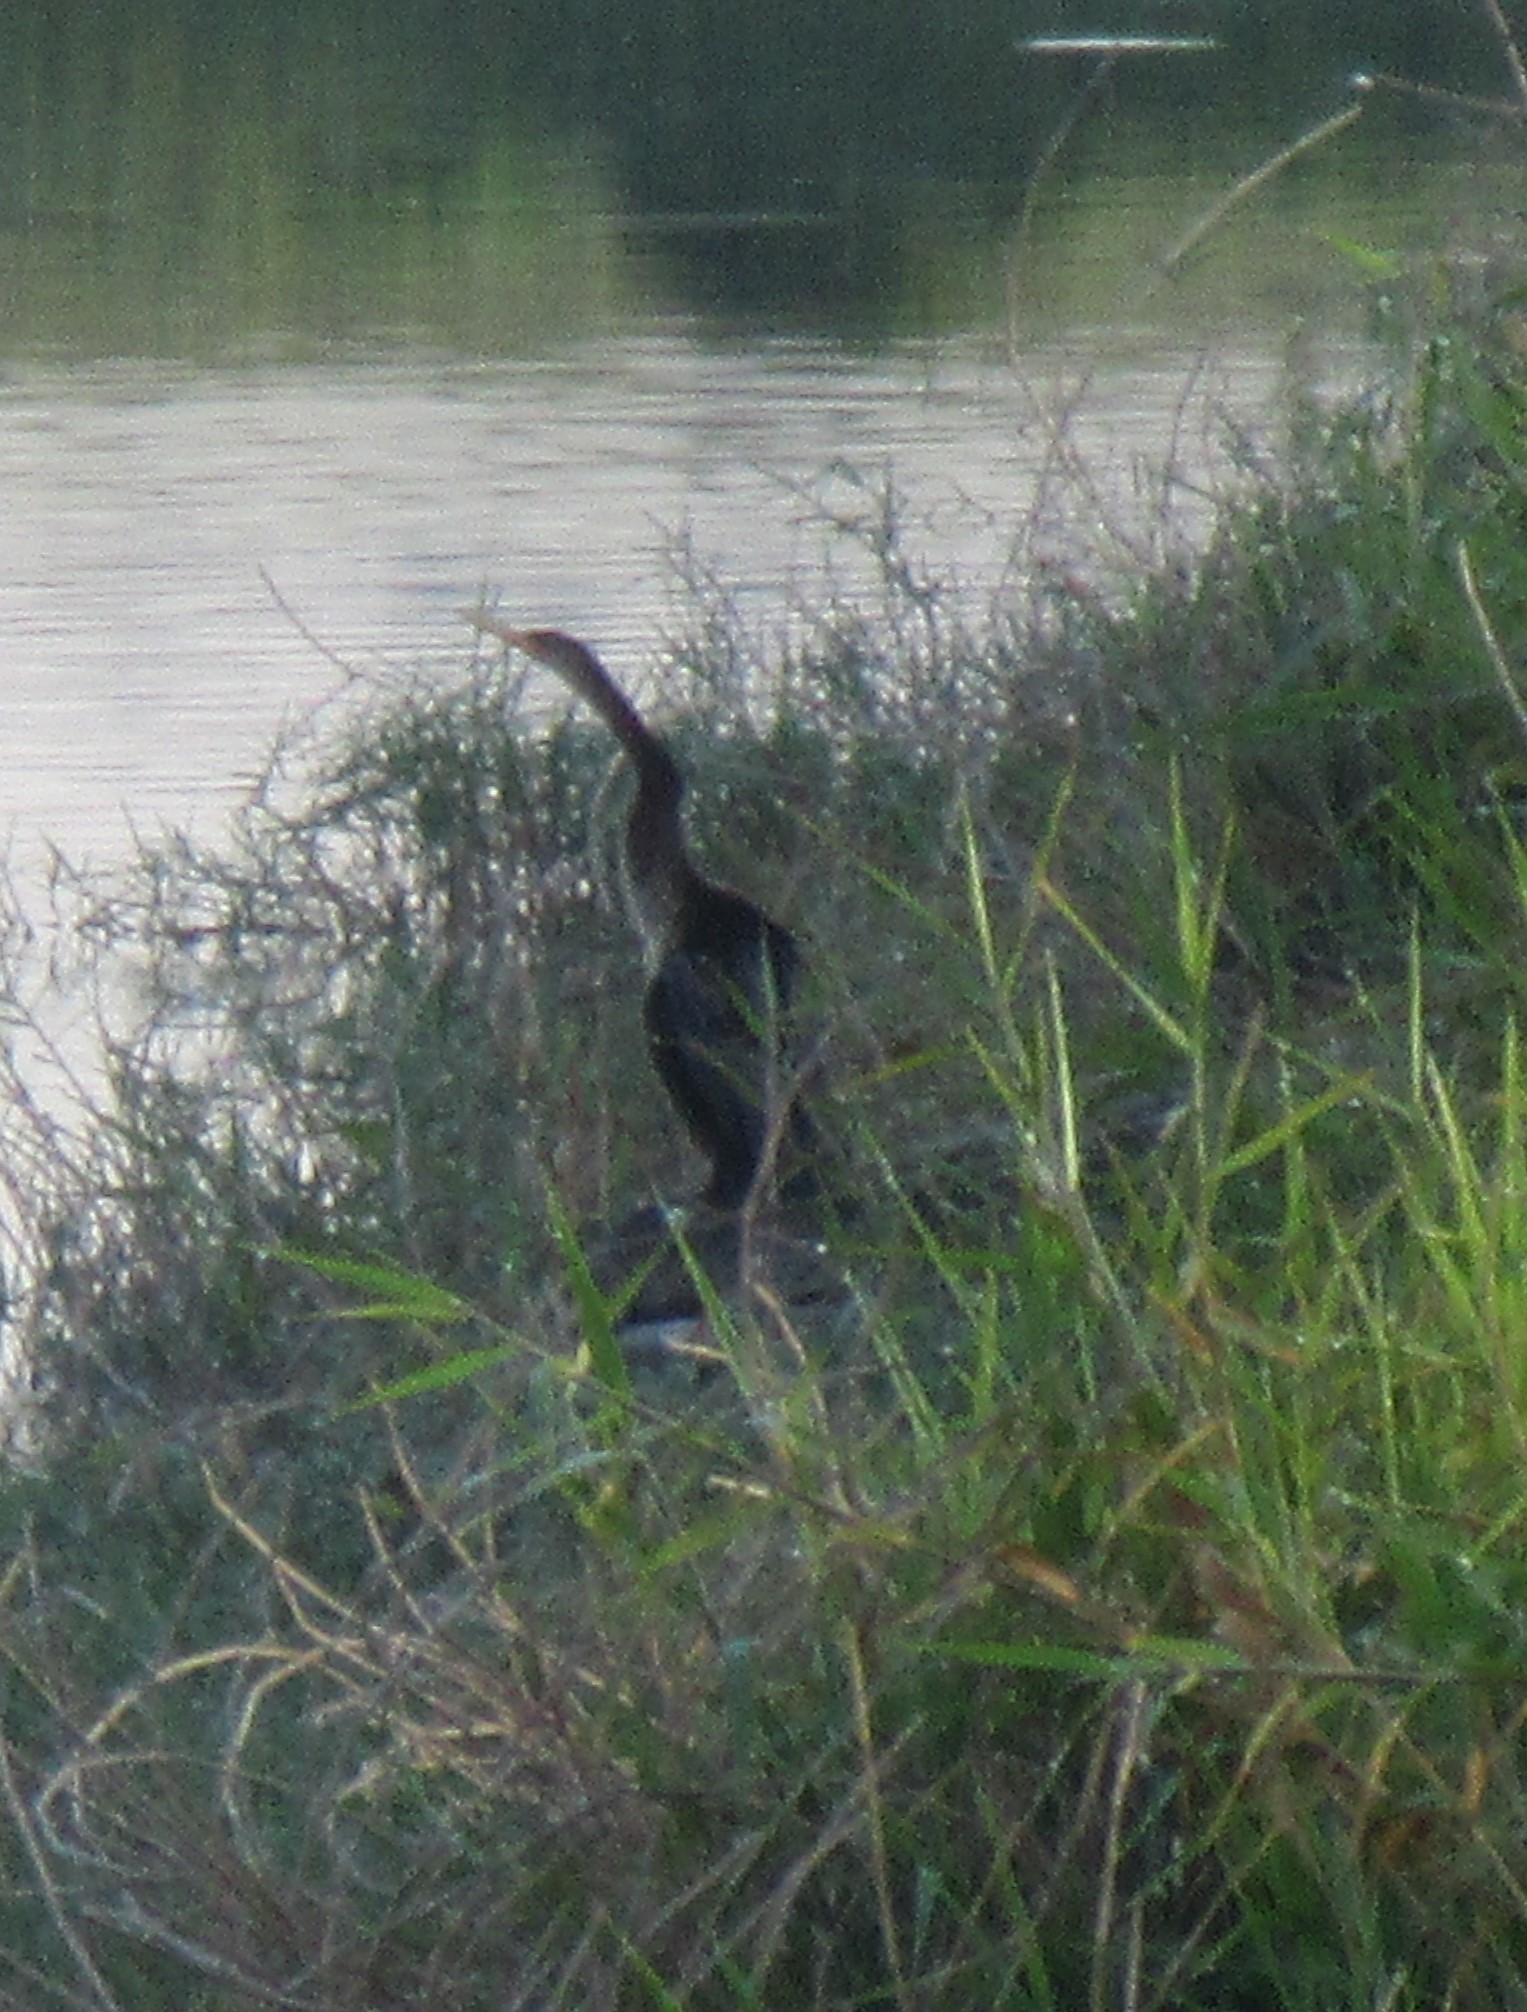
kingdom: Animalia
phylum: Chordata
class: Aves
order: Suliformes
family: Anhingidae
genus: Anhinga
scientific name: Anhinga anhinga
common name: Anhinga
